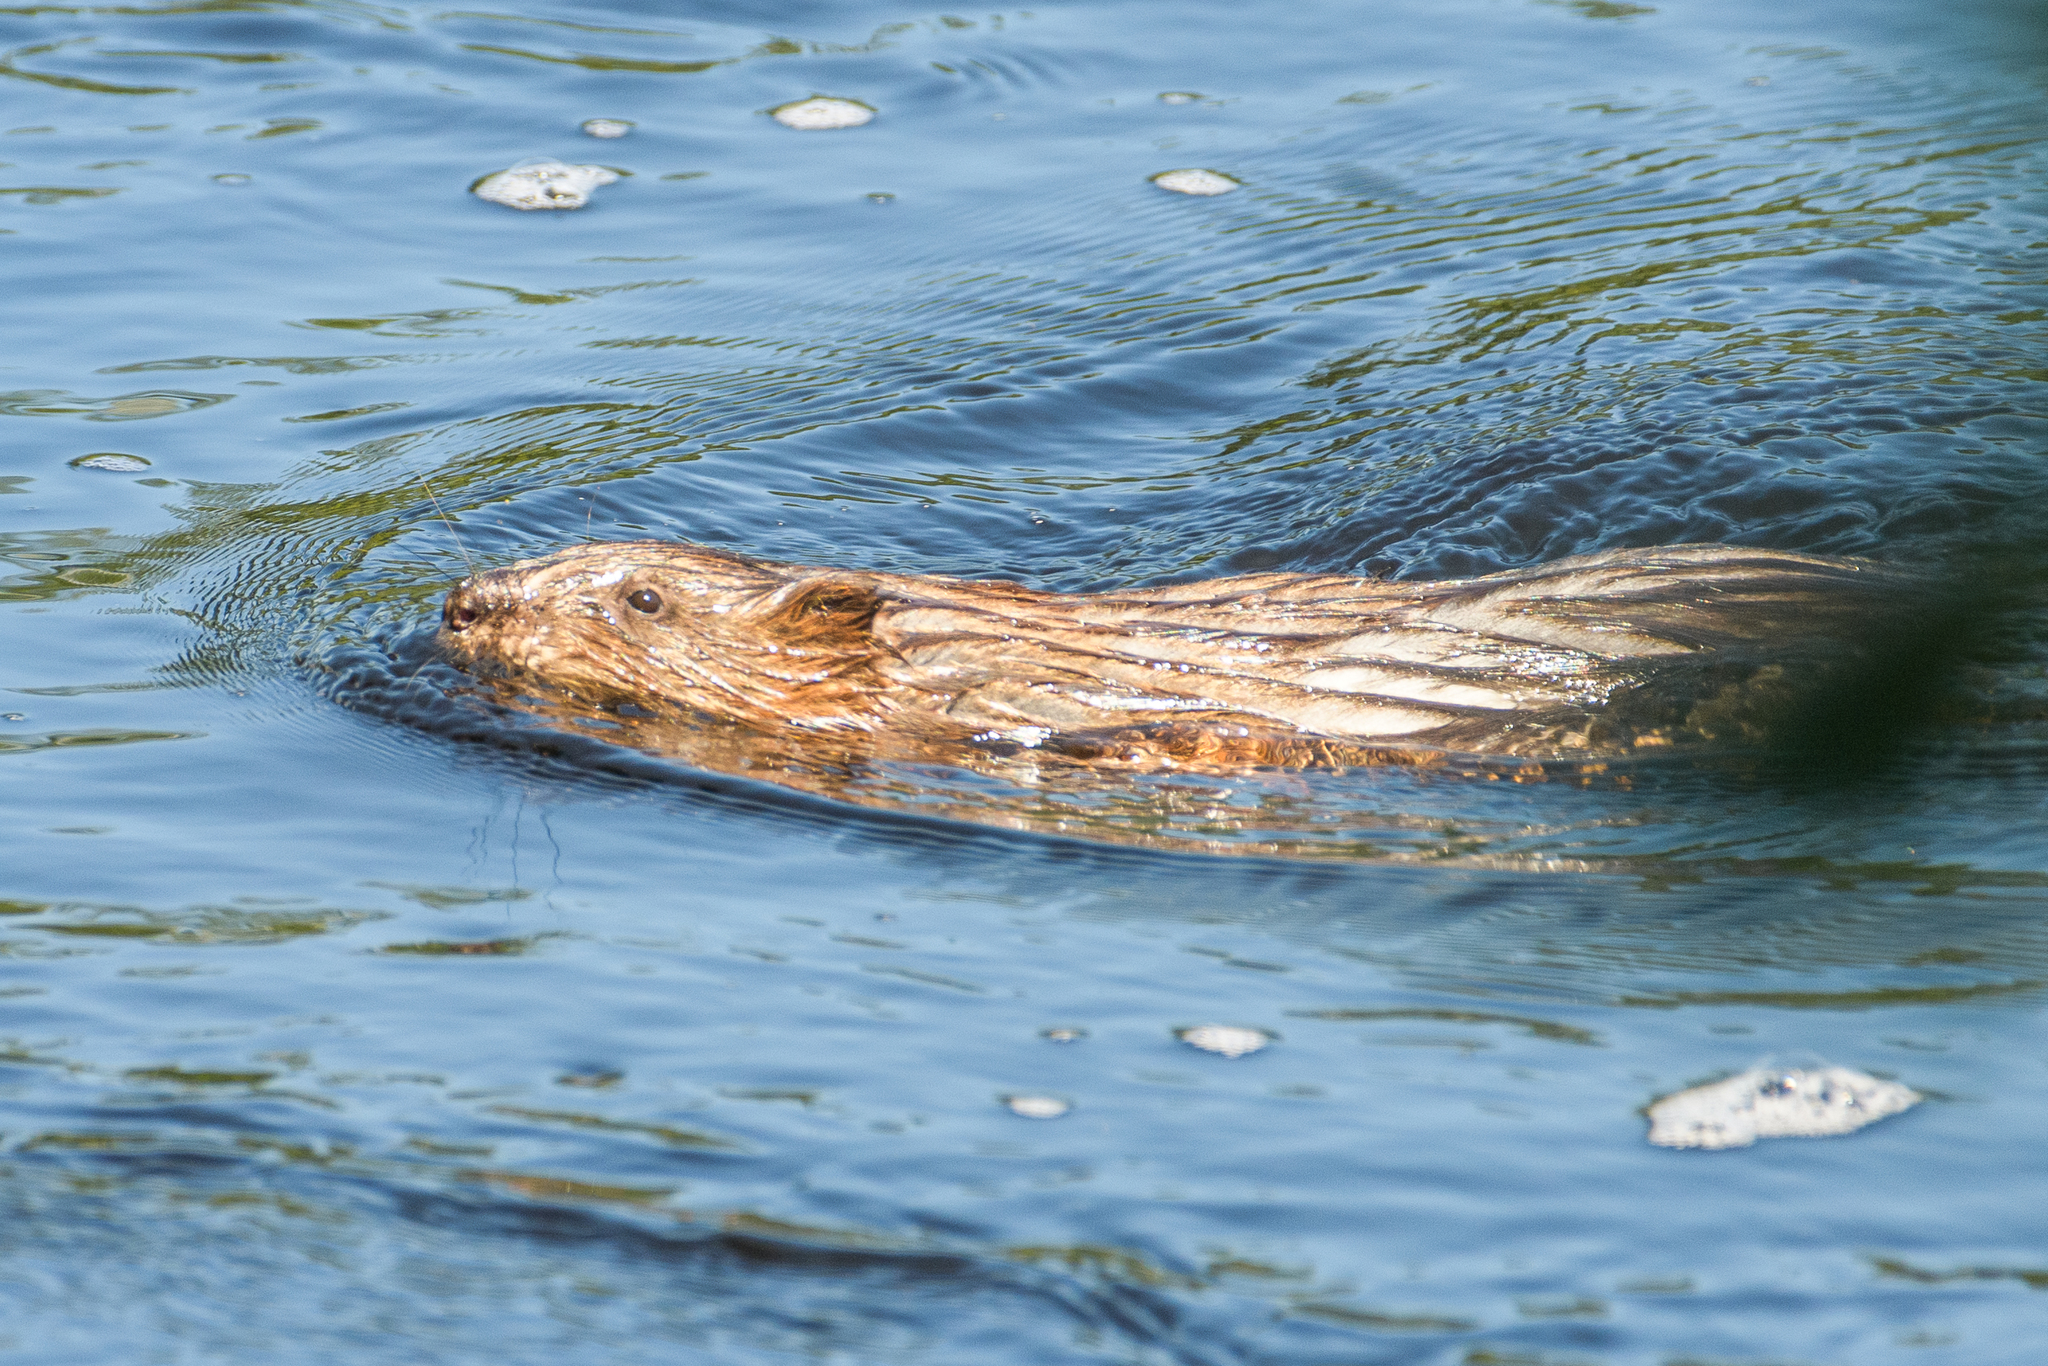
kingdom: Animalia
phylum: Chordata
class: Mammalia
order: Rodentia
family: Cricetidae
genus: Ondatra
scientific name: Ondatra zibethicus
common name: Muskrat
